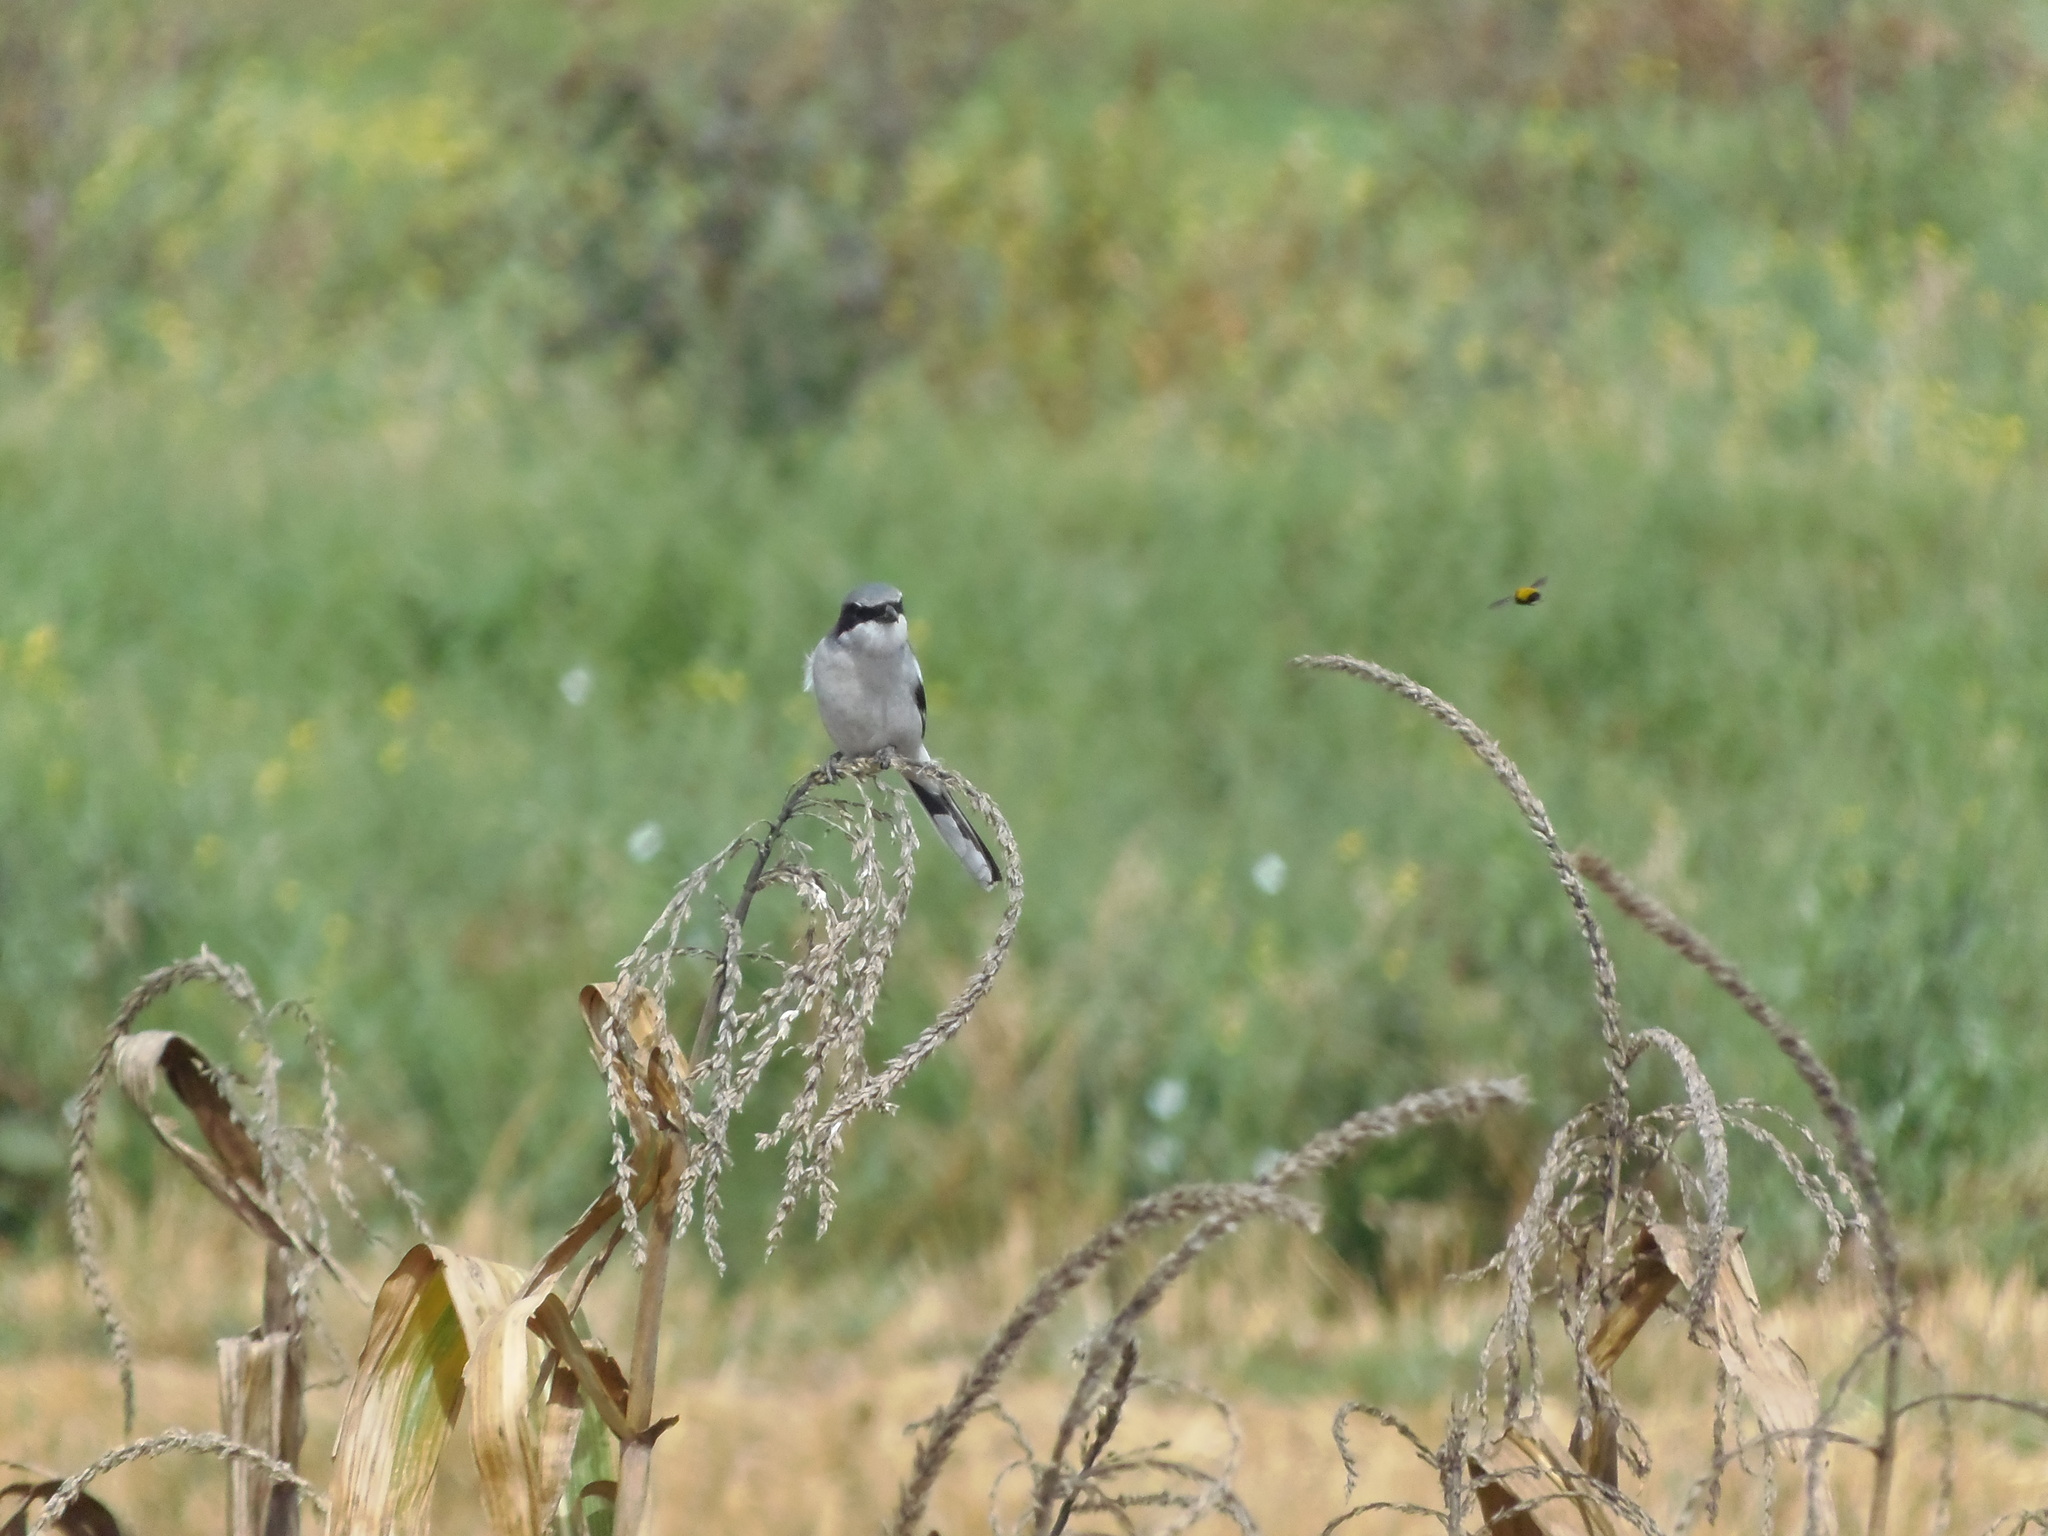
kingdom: Animalia
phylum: Chordata
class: Aves
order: Passeriformes
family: Laniidae
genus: Lanius
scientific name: Lanius ludovicianus
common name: Loggerhead shrike
